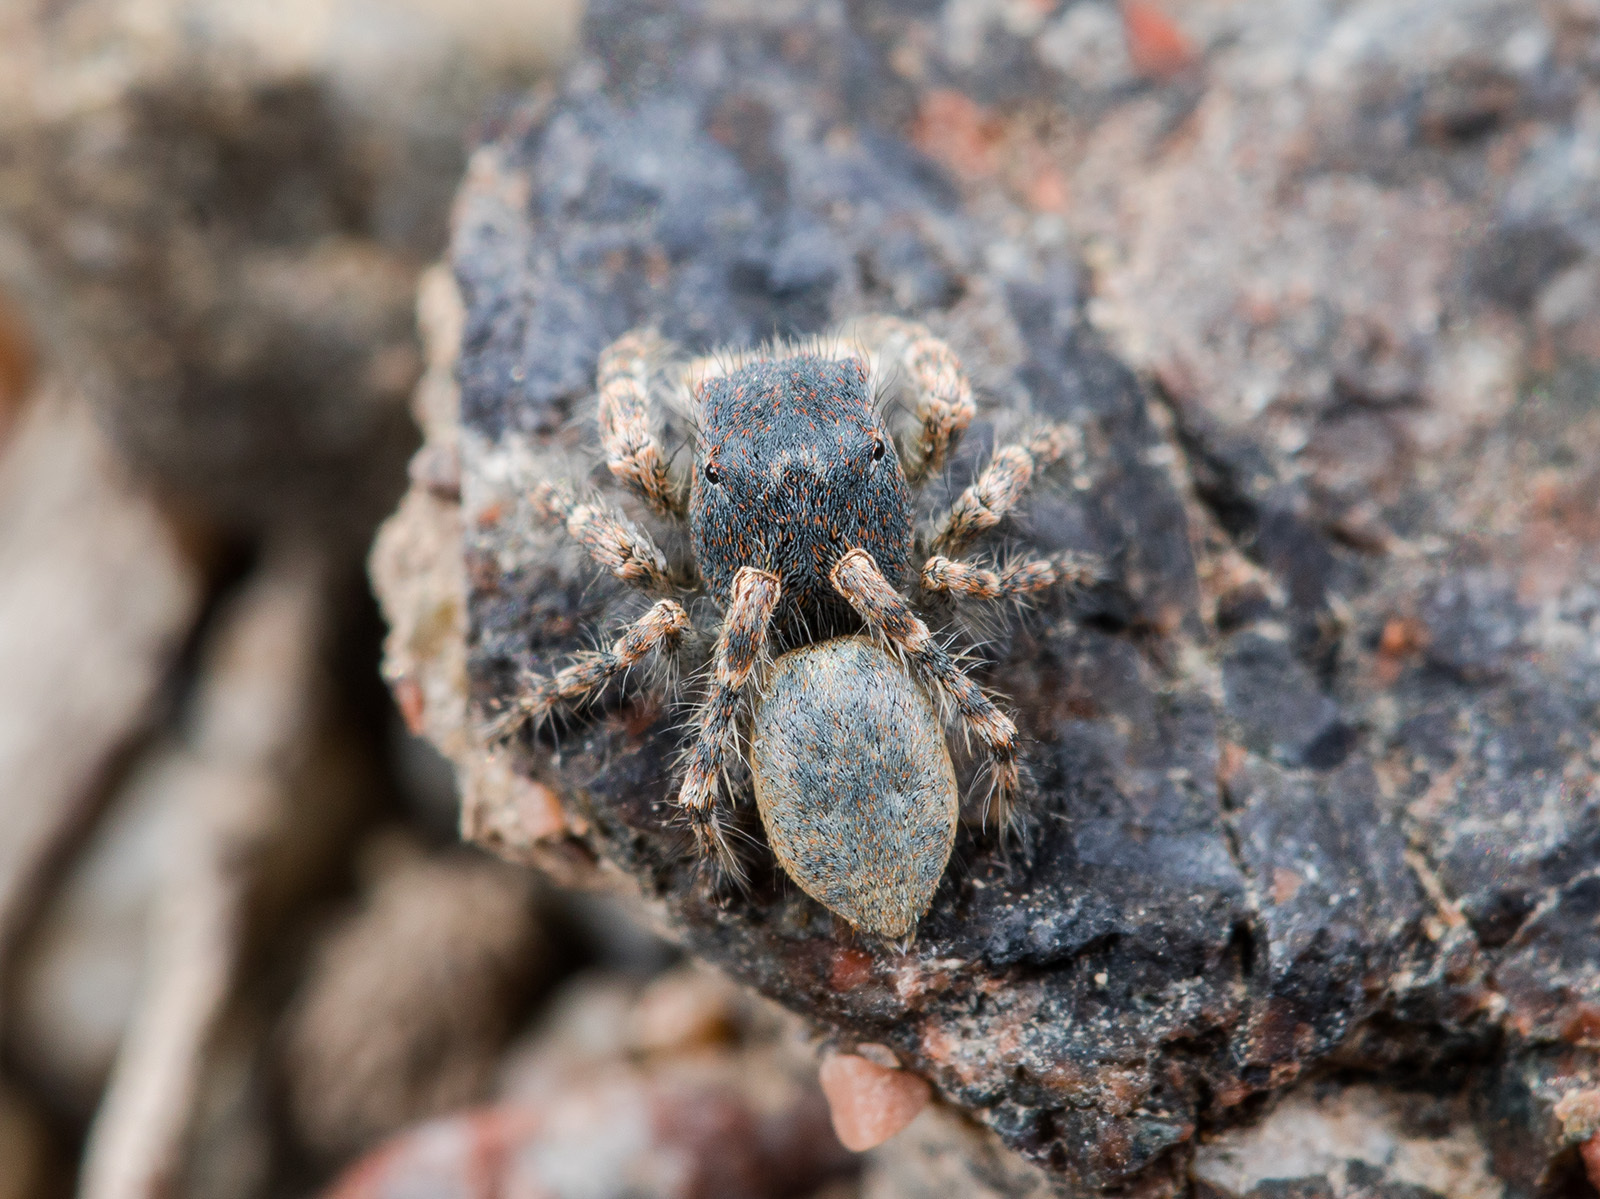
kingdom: Animalia
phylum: Arthropoda
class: Arachnida
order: Araneae
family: Salticidae
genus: Yllenus
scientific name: Yllenus zyuzini
